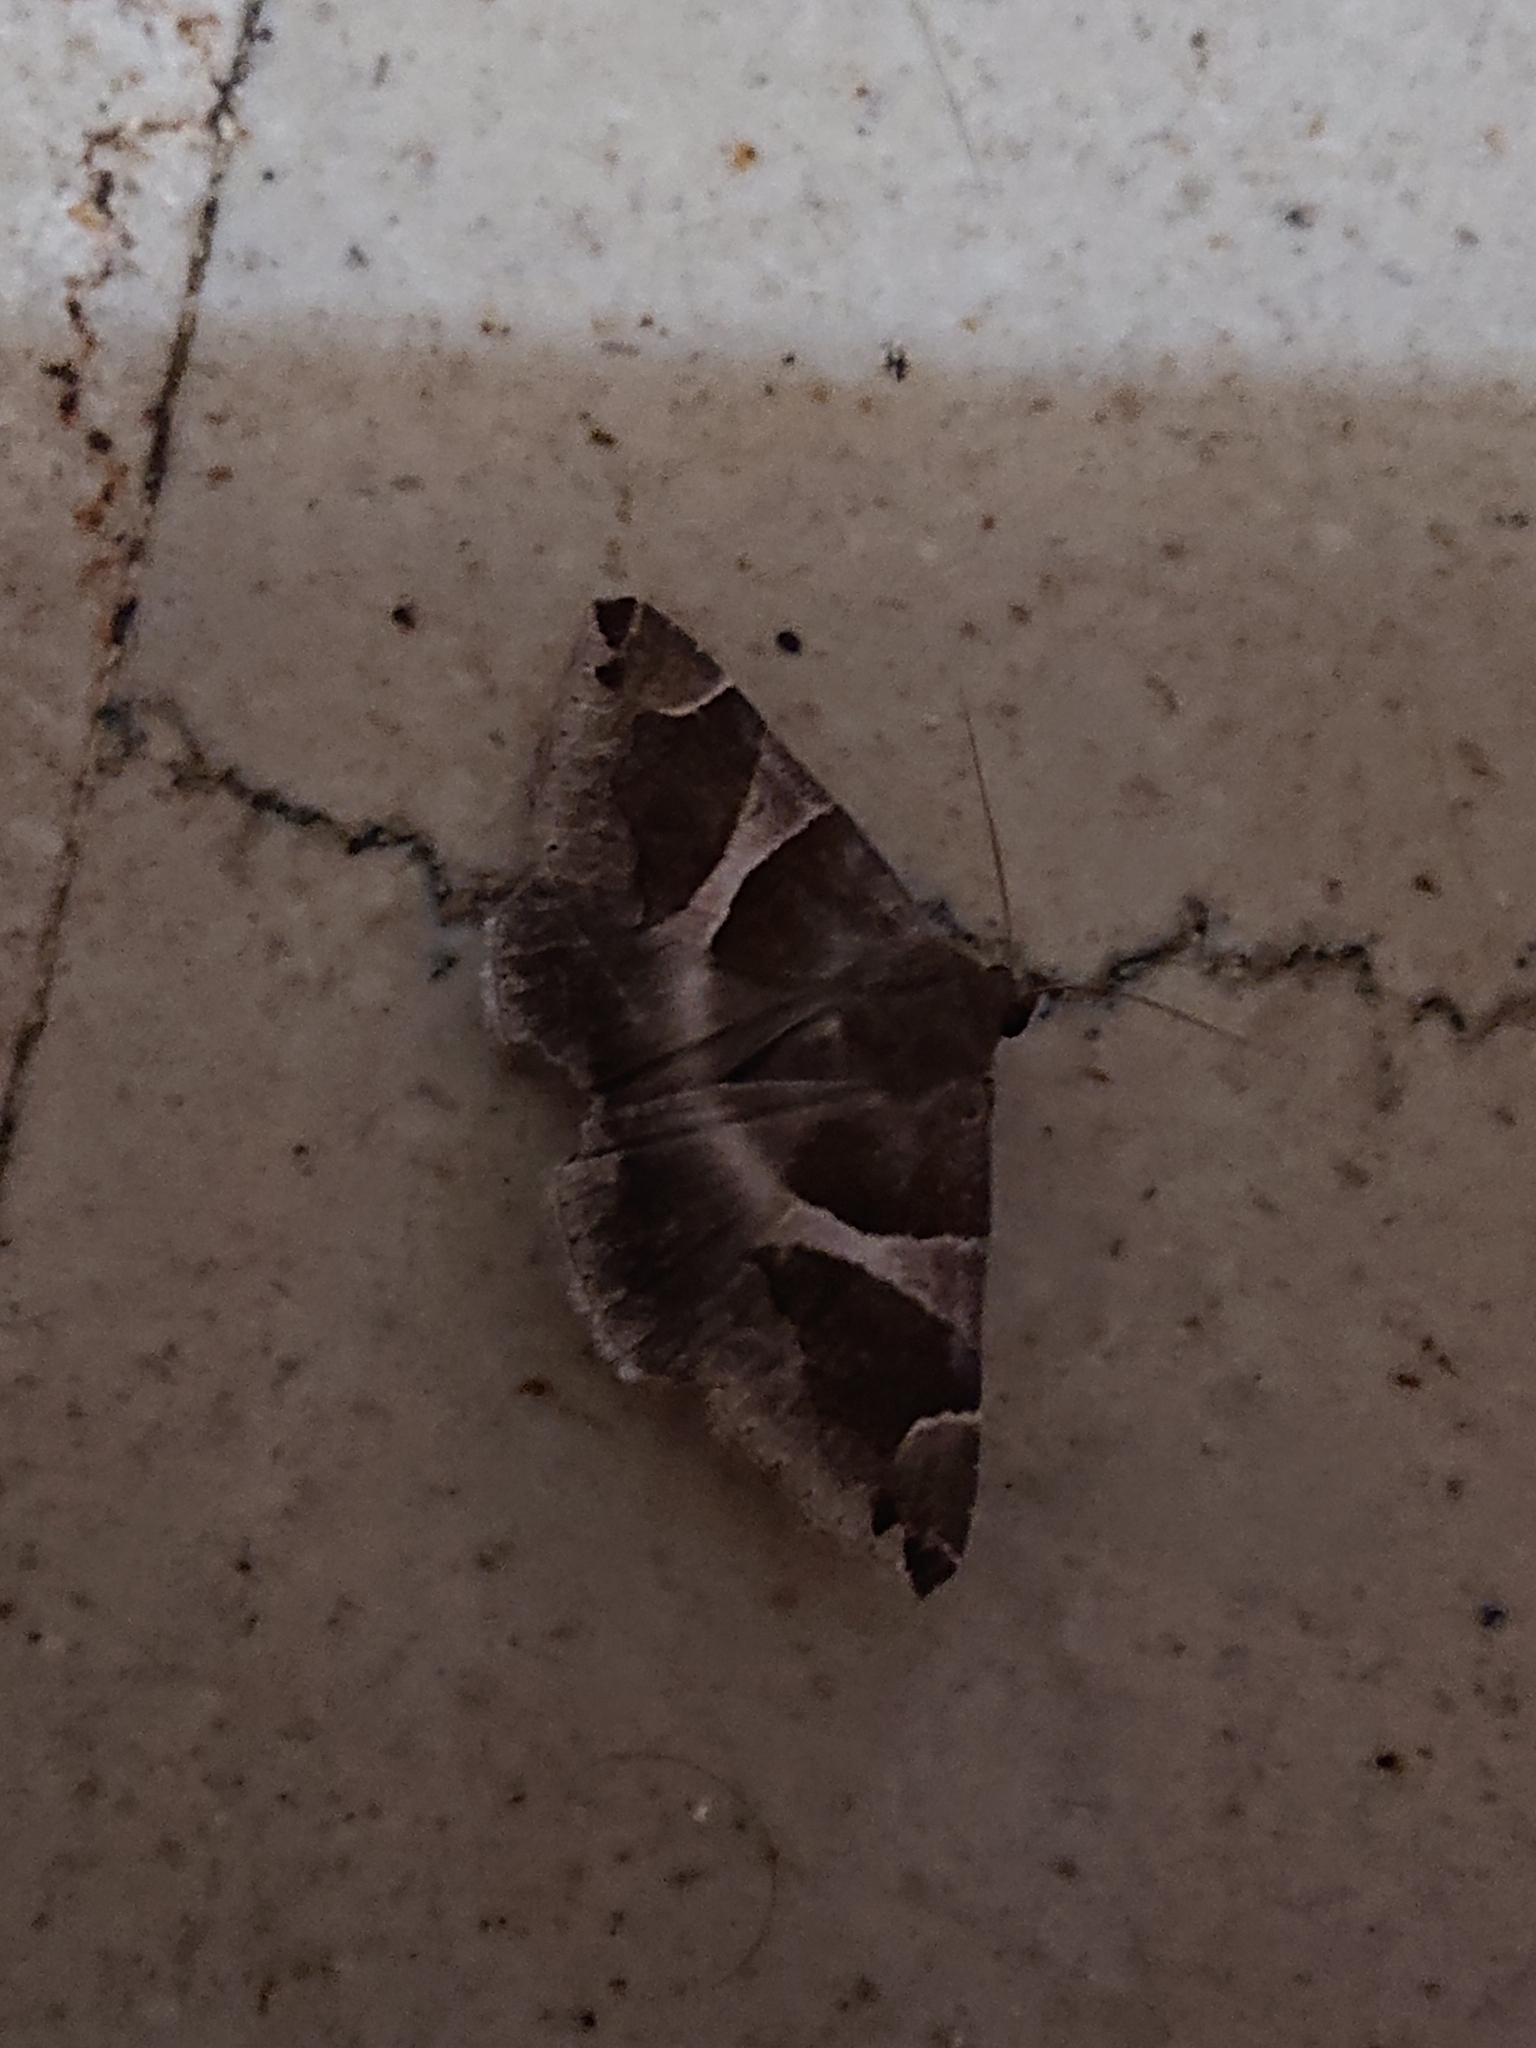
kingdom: Animalia
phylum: Arthropoda
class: Insecta
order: Lepidoptera
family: Erebidae
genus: Dysgonia
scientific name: Dysgonia algira
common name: Passenger
